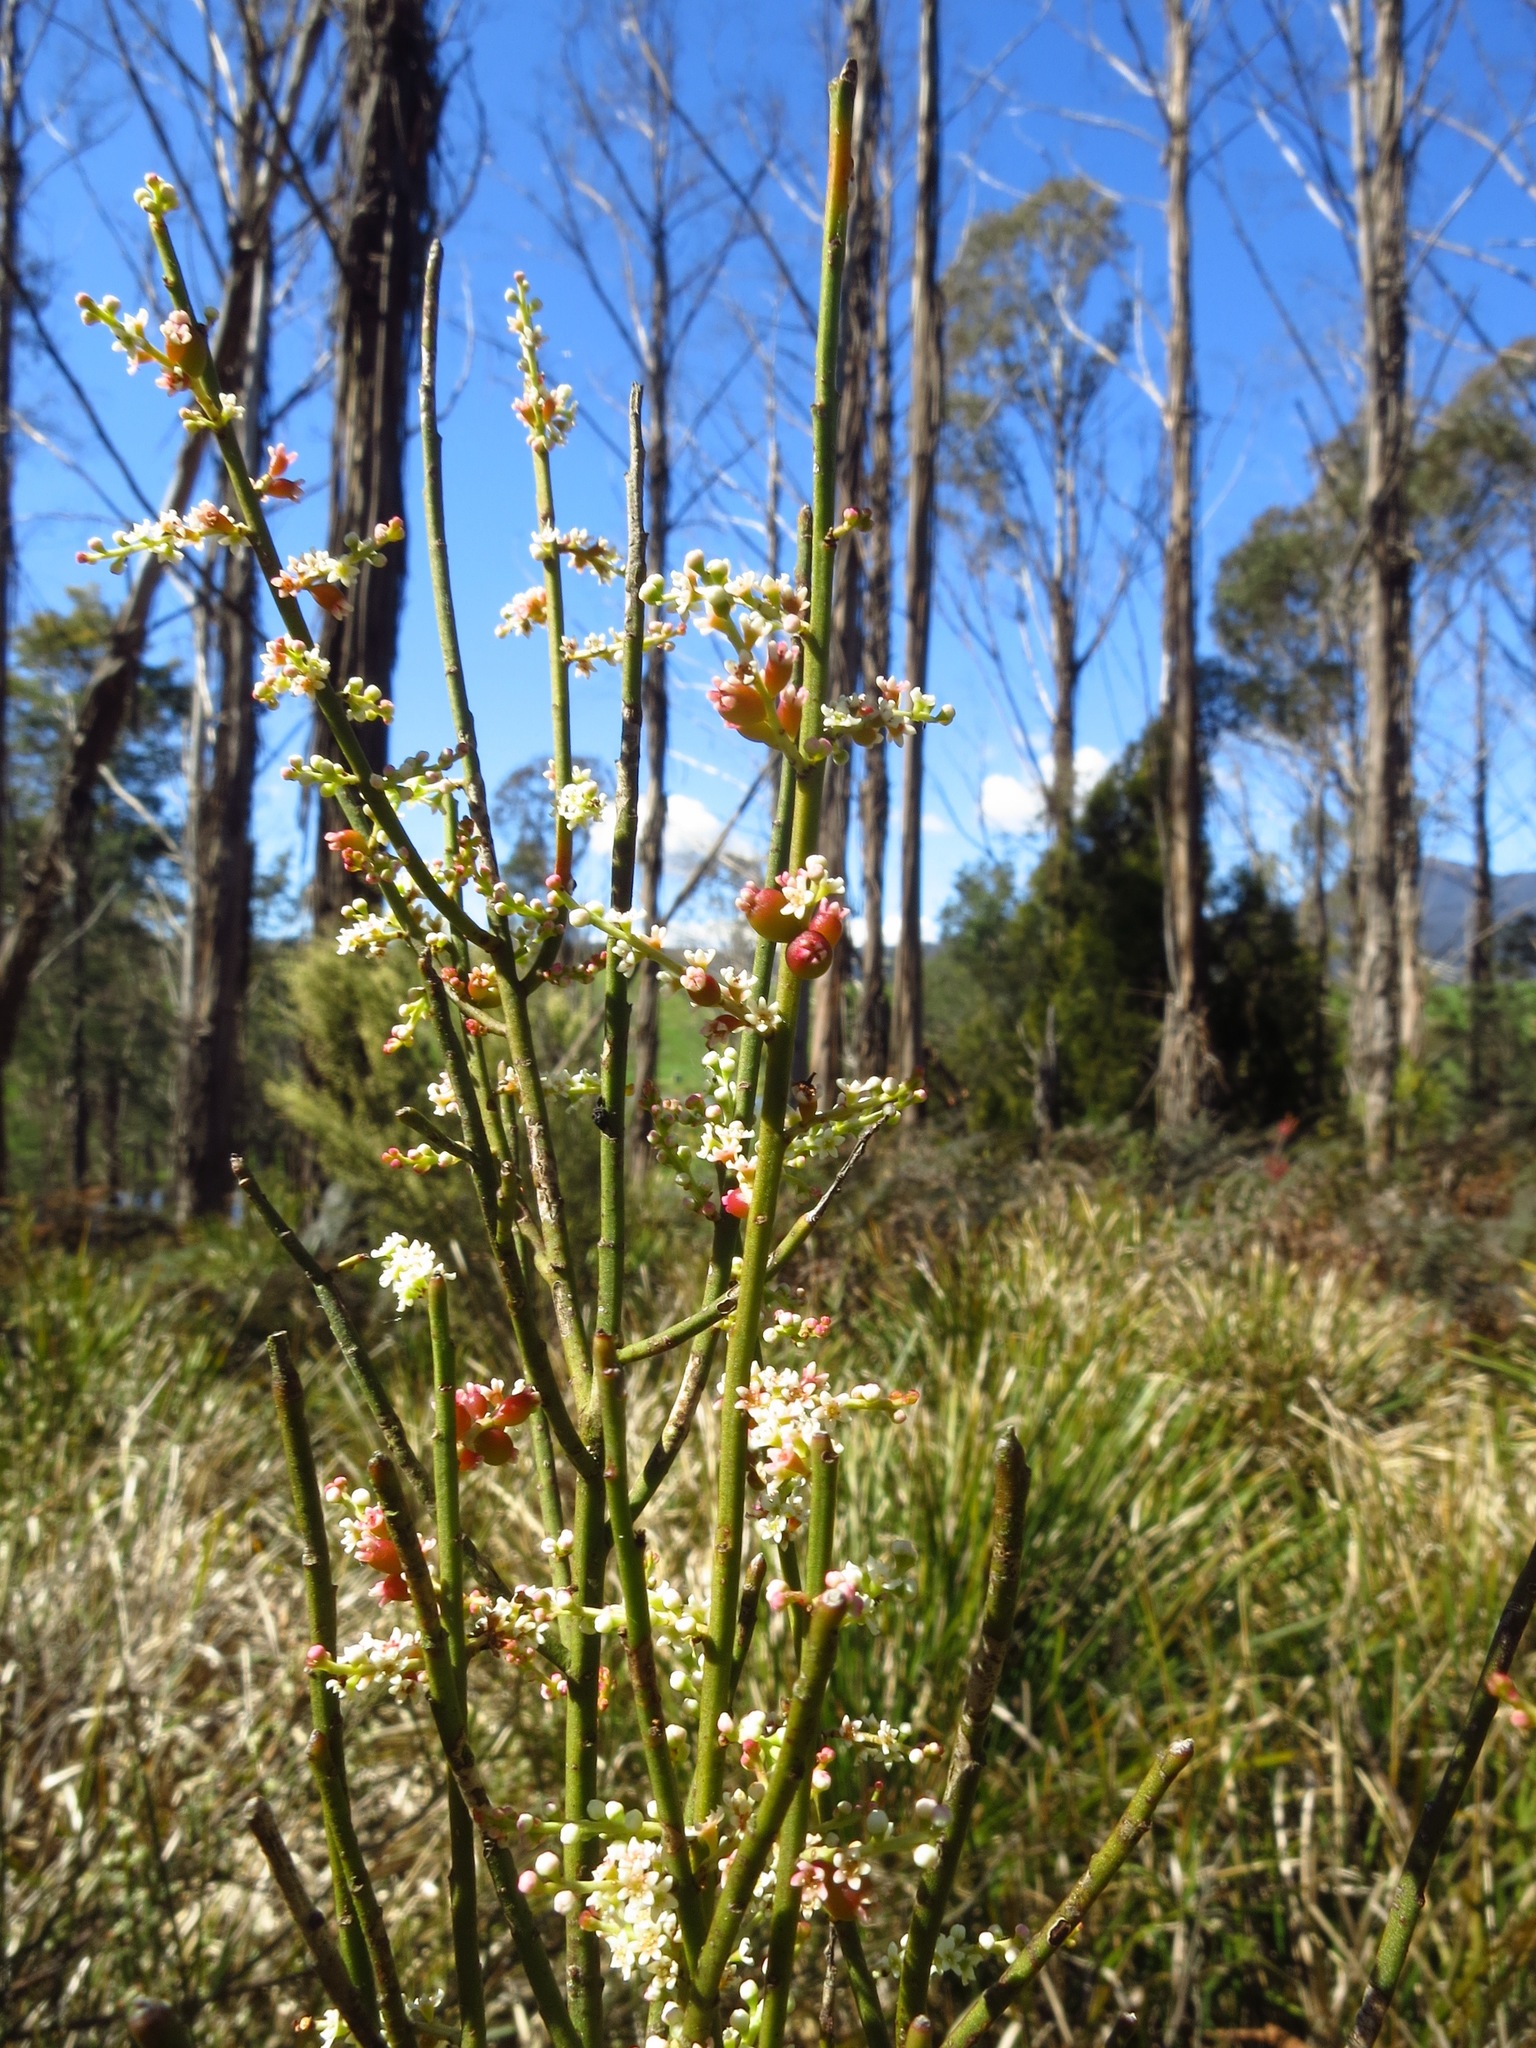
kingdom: Plantae
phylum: Tracheophyta
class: Magnoliopsida
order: Santalales
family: Amphorogynaceae
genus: Leptomeria
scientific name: Leptomeria drupacea
